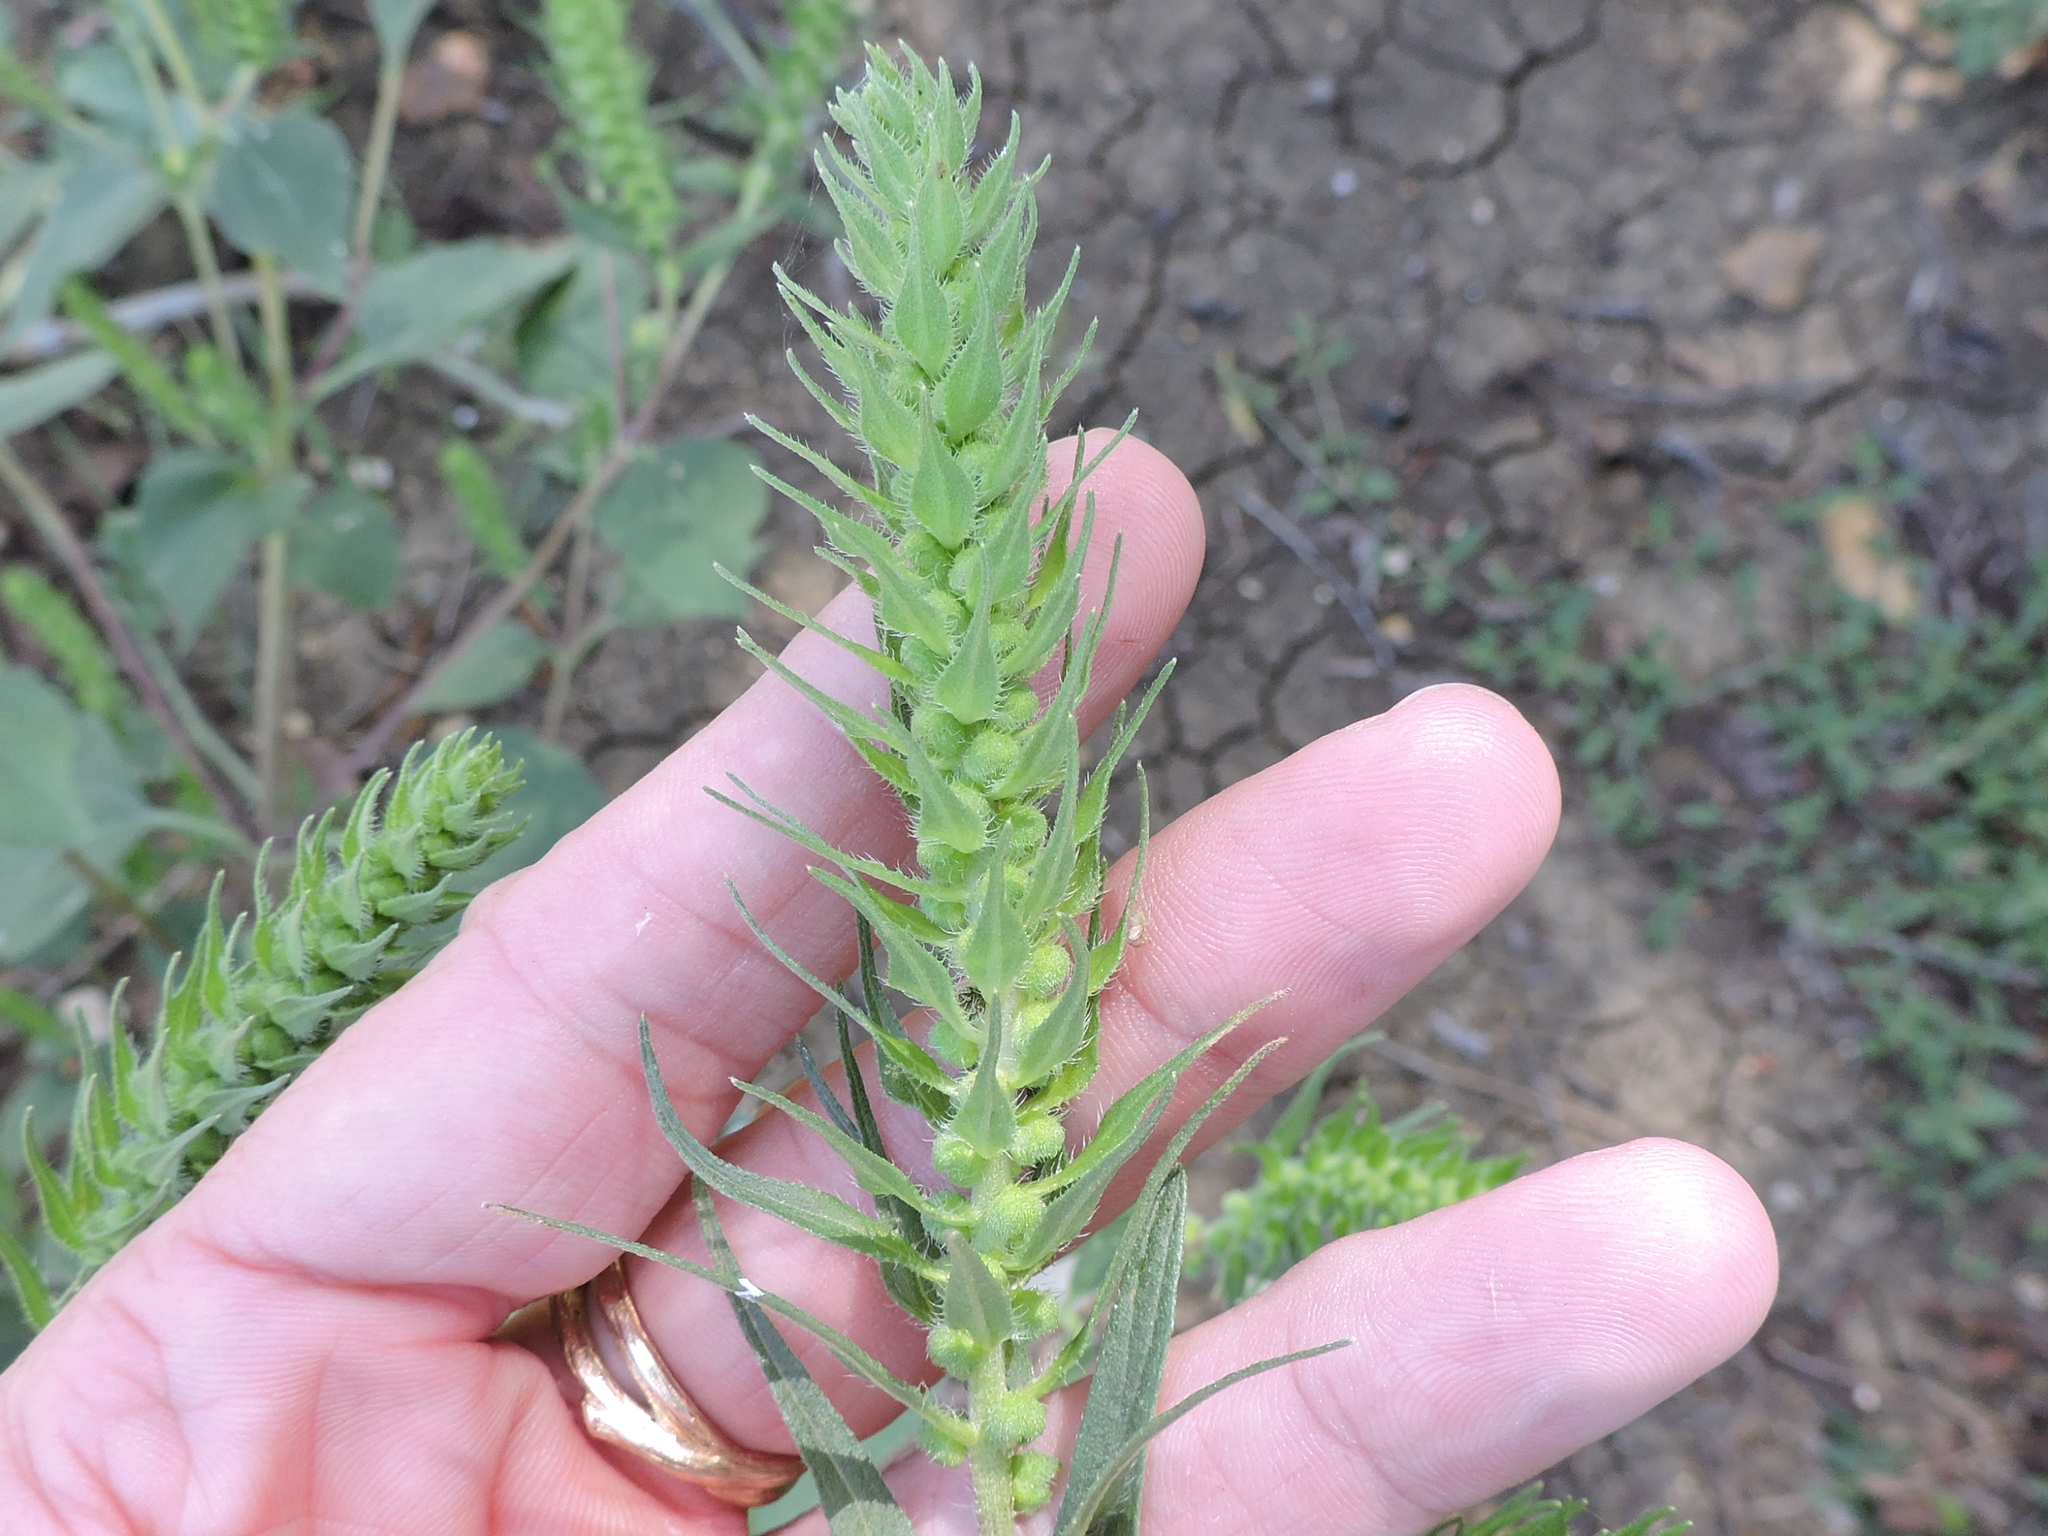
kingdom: Plantae
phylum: Tracheophyta
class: Magnoliopsida
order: Asterales
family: Asteraceae
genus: Iva
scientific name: Iva annua
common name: Marsh-elder
